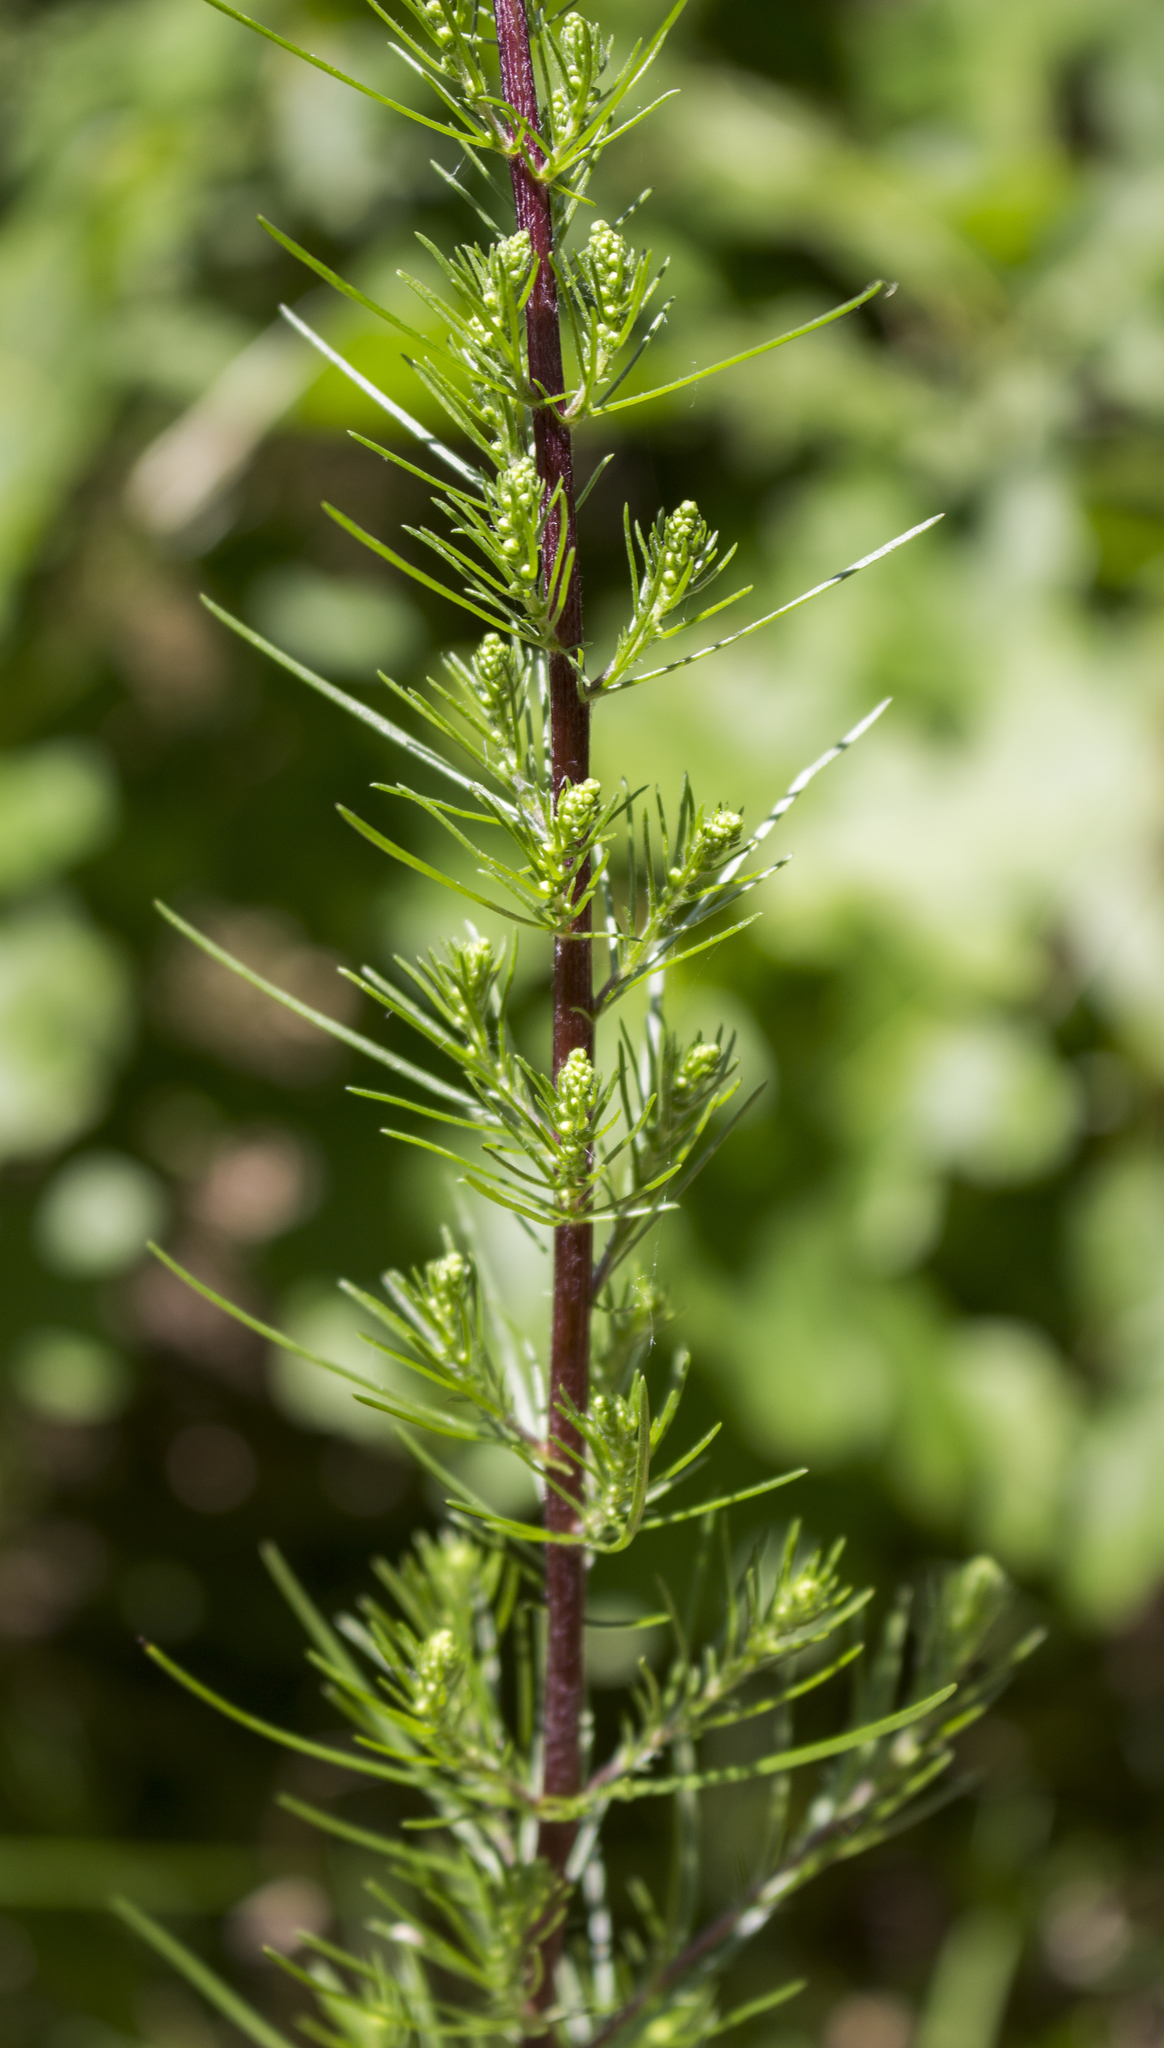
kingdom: Plantae
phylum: Tracheophyta
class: Magnoliopsida
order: Asterales
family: Asteraceae
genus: Artemisia
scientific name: Artemisia campestris
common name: Field wormwood
